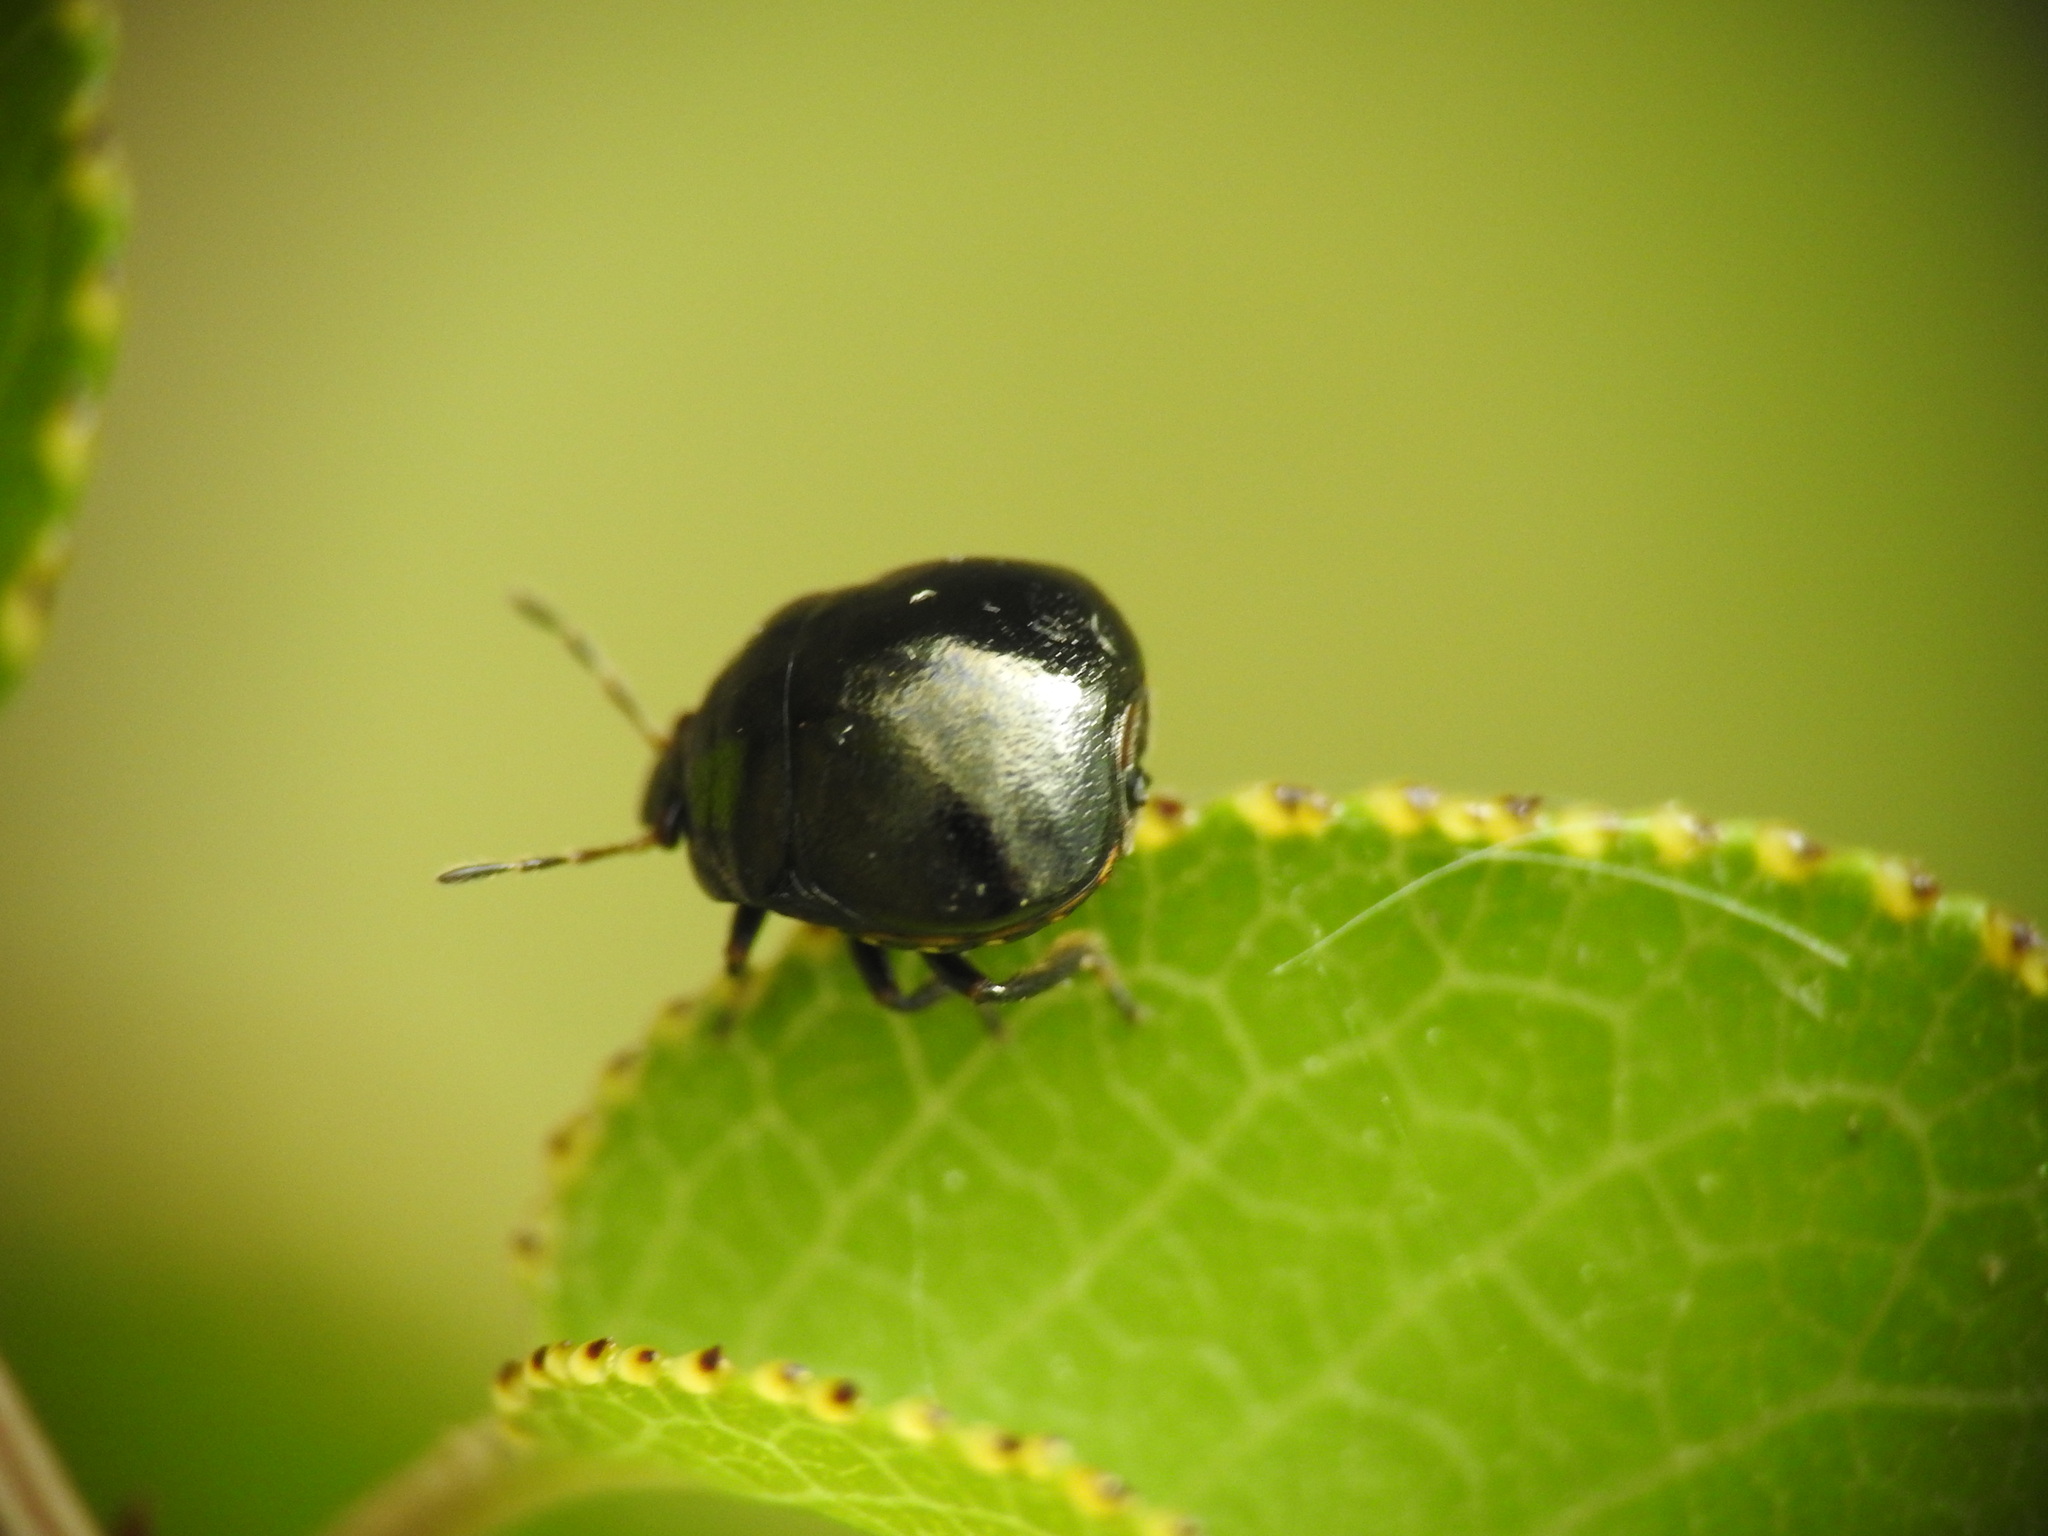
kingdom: Animalia
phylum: Arthropoda
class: Insecta
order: Hemiptera
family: Plataspidae
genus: Coptosoma
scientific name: Coptosoma scutellatum
